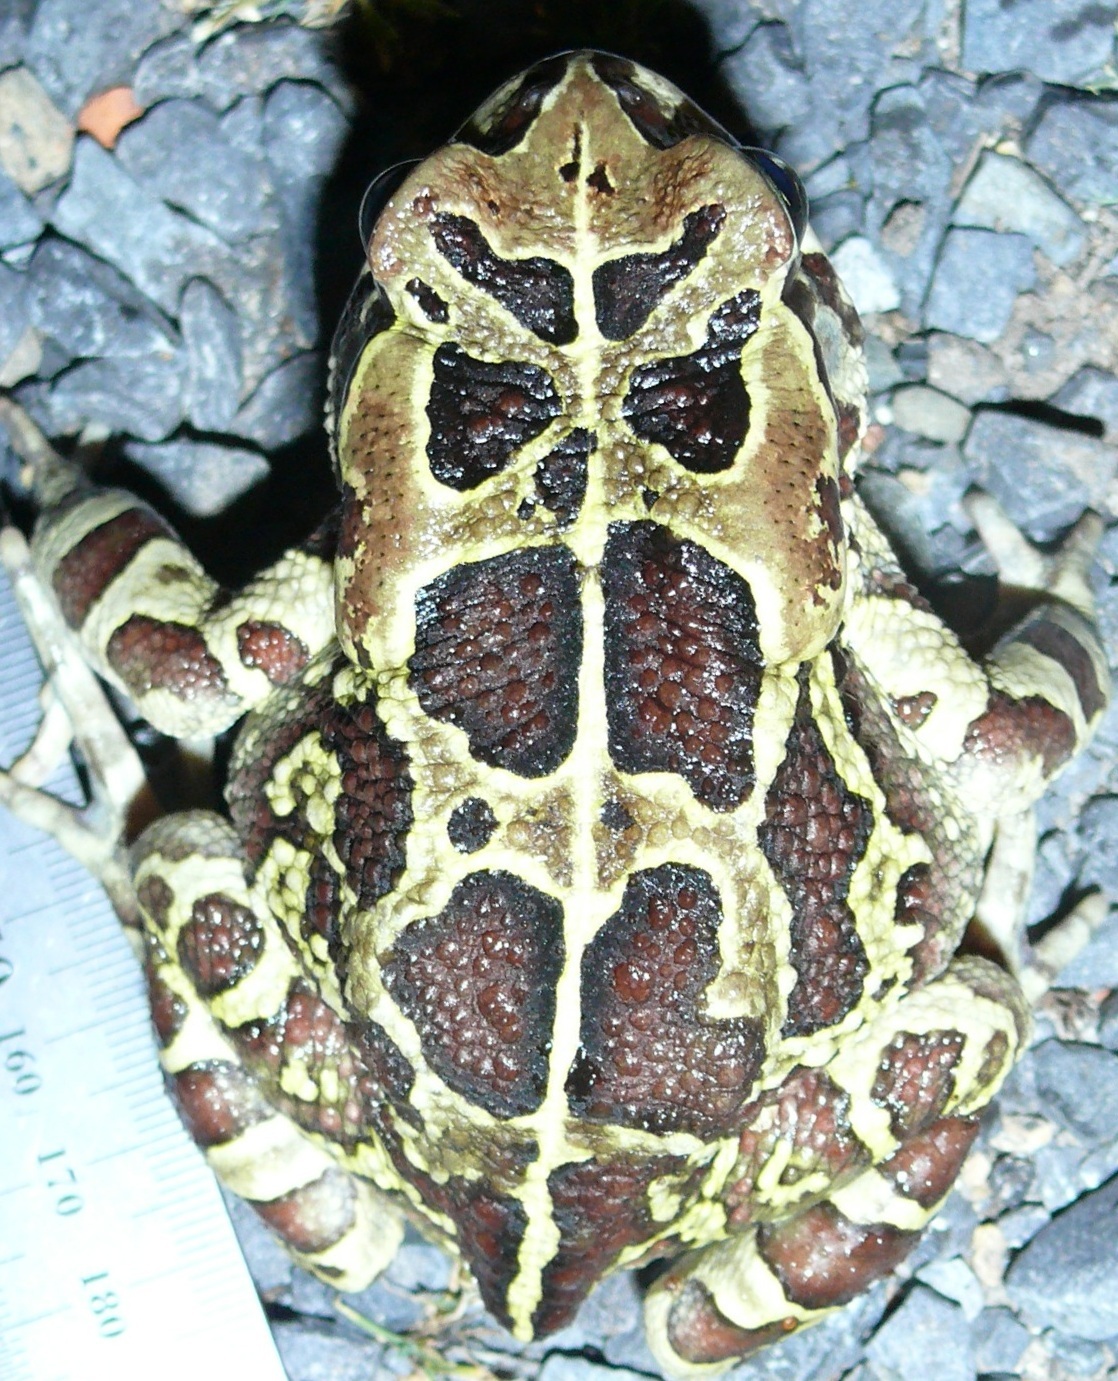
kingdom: Animalia
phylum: Chordata
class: Amphibia
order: Anura
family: Bufonidae
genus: Sclerophrys
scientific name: Sclerophrys pantherina
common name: Panther toad
